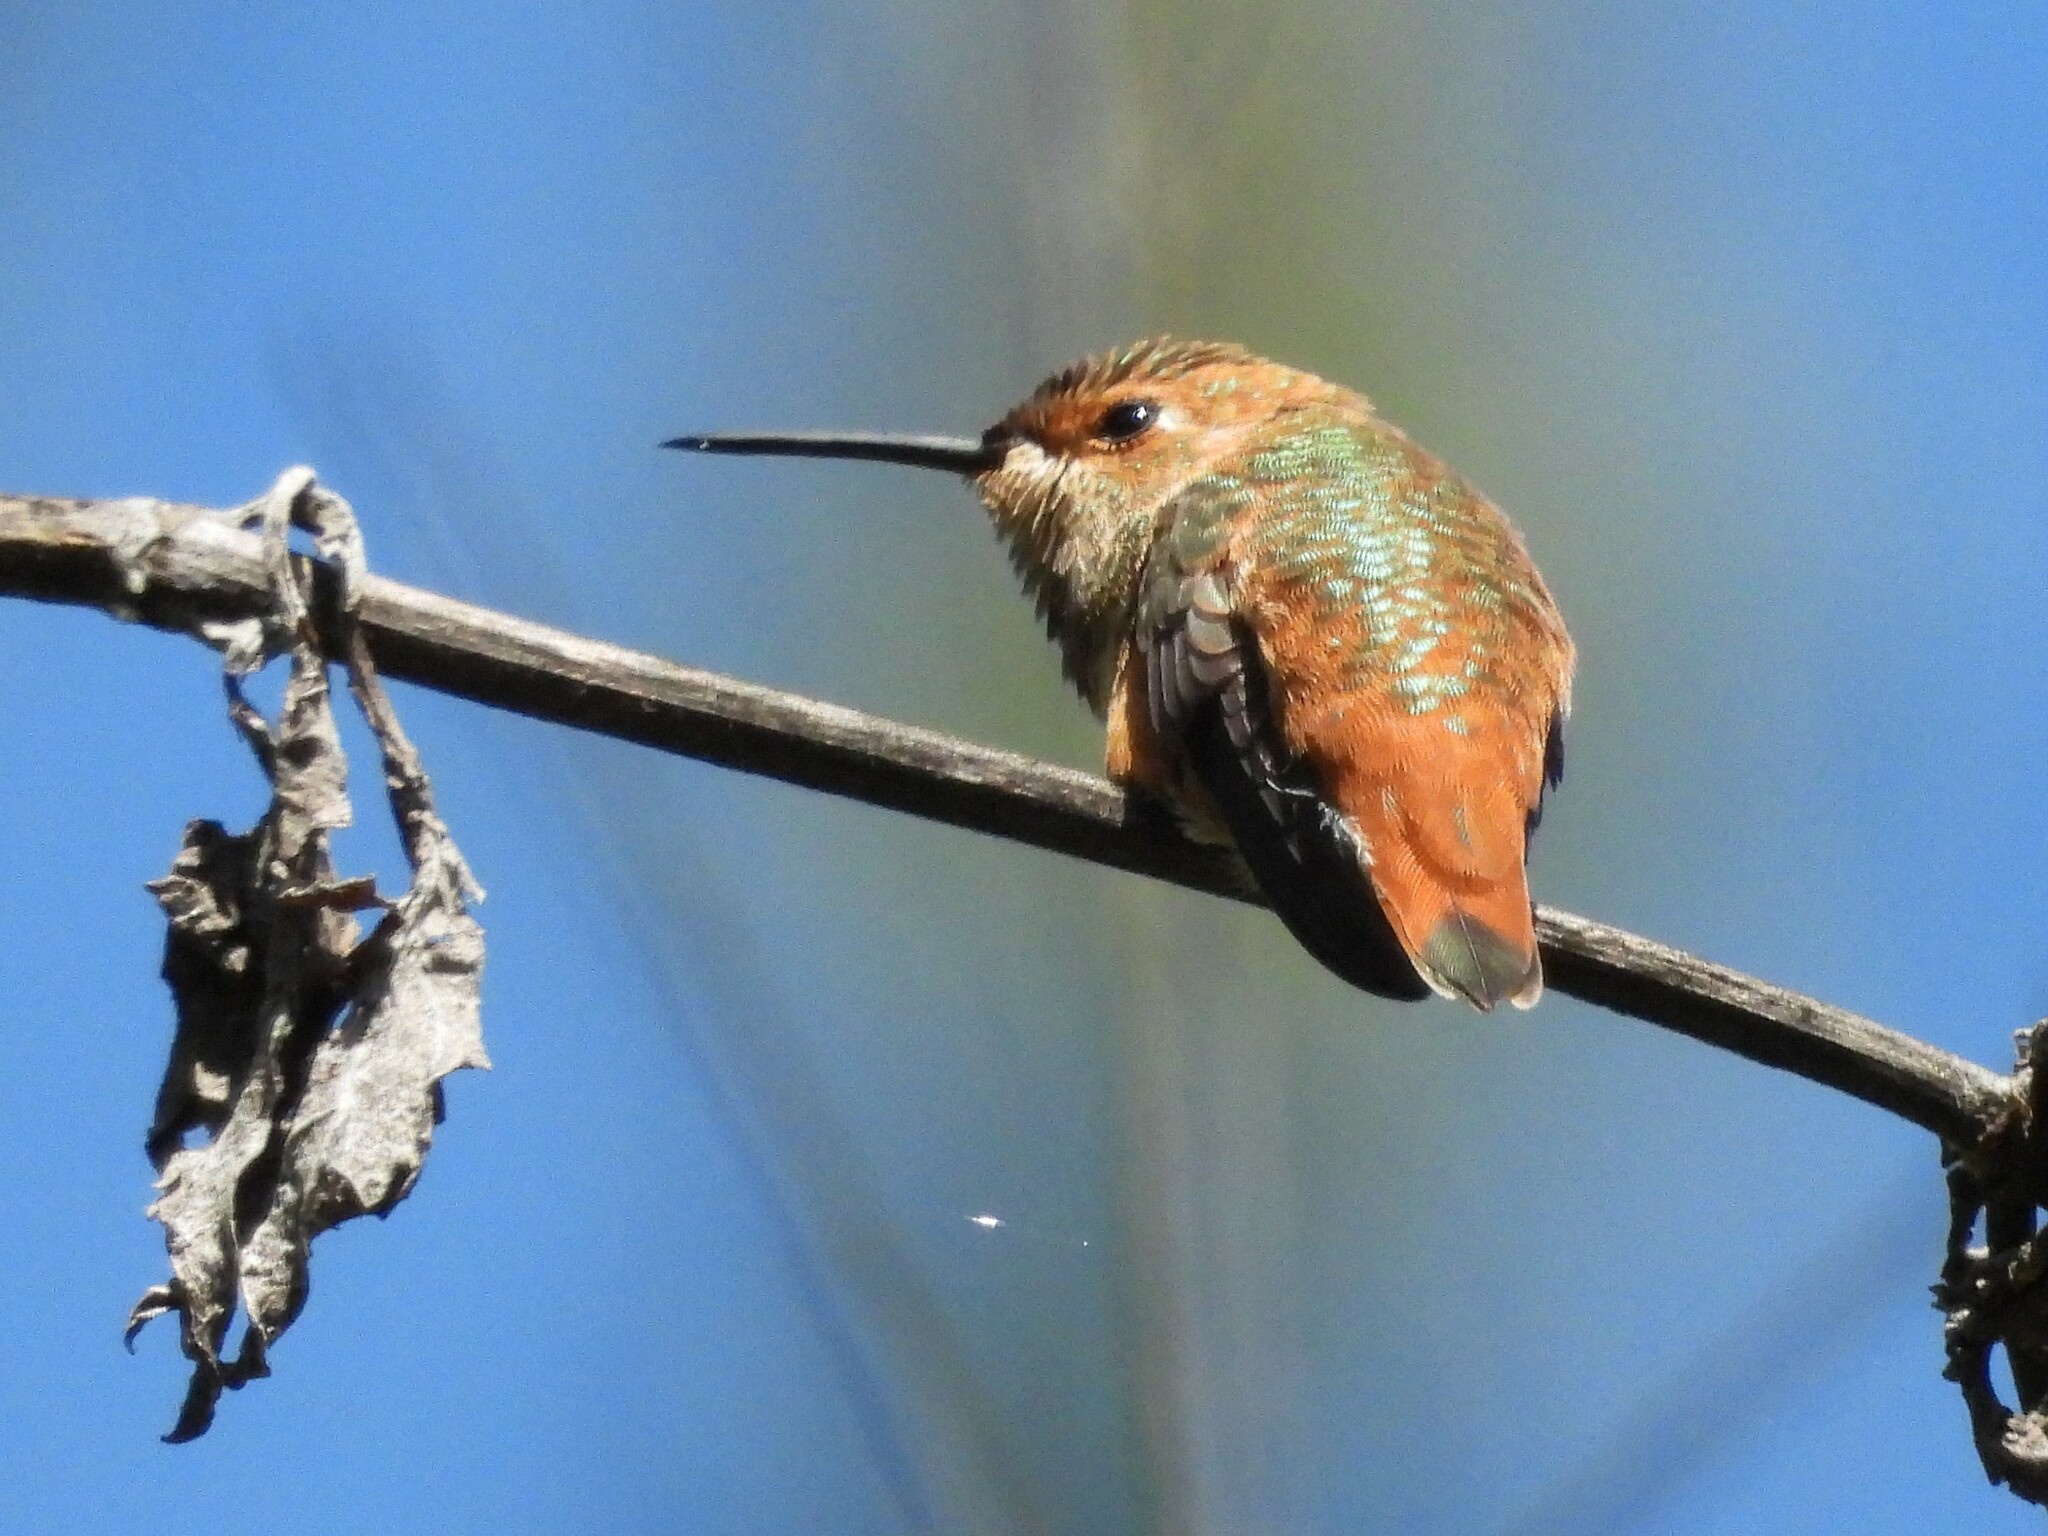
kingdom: Animalia
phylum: Chordata
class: Aves
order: Apodiformes
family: Trochilidae
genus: Selasphorus
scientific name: Selasphorus sasin
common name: Allen's hummingbird
